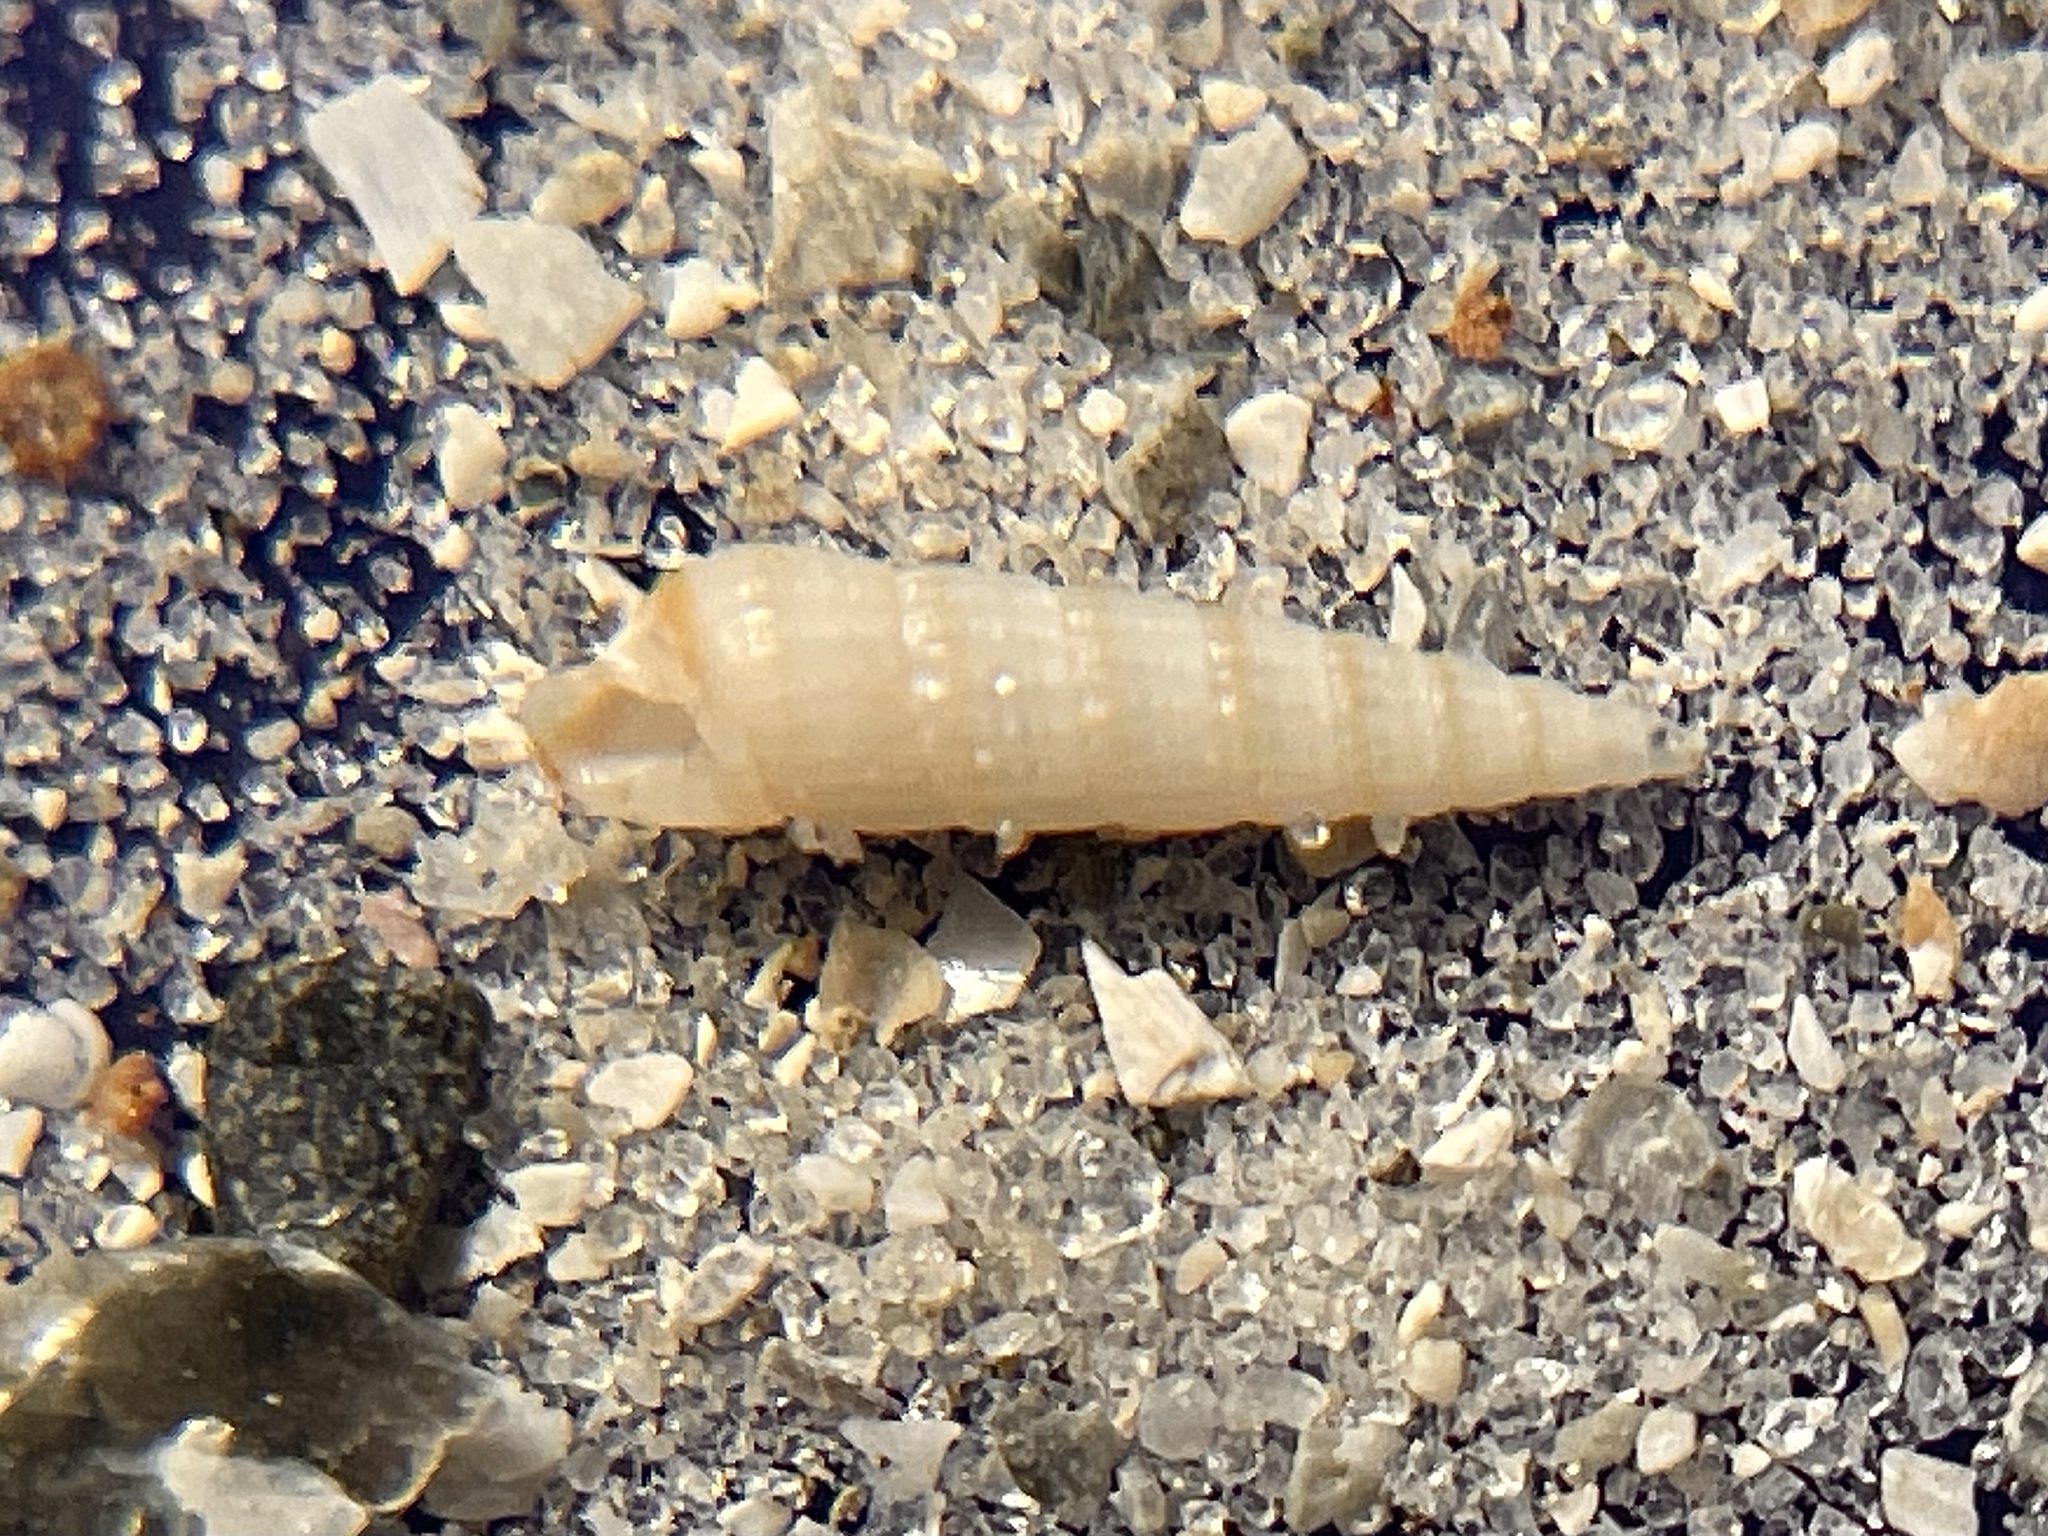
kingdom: Animalia
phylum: Mollusca
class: Gastropoda
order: Neogastropoda
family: Terebridae
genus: Neoterebra
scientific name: Neoterebra protexta
